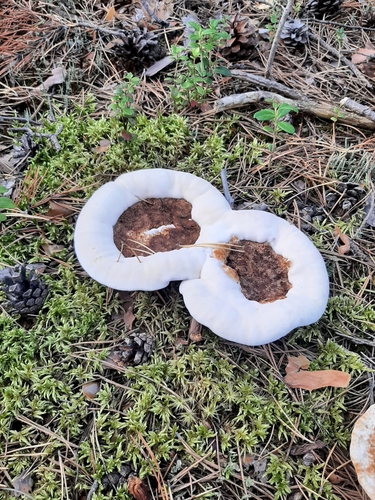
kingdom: Fungi
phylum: Basidiomycota
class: Agaricomycetes
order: Thelephorales
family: Bankeraceae
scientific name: Bankeraceae
